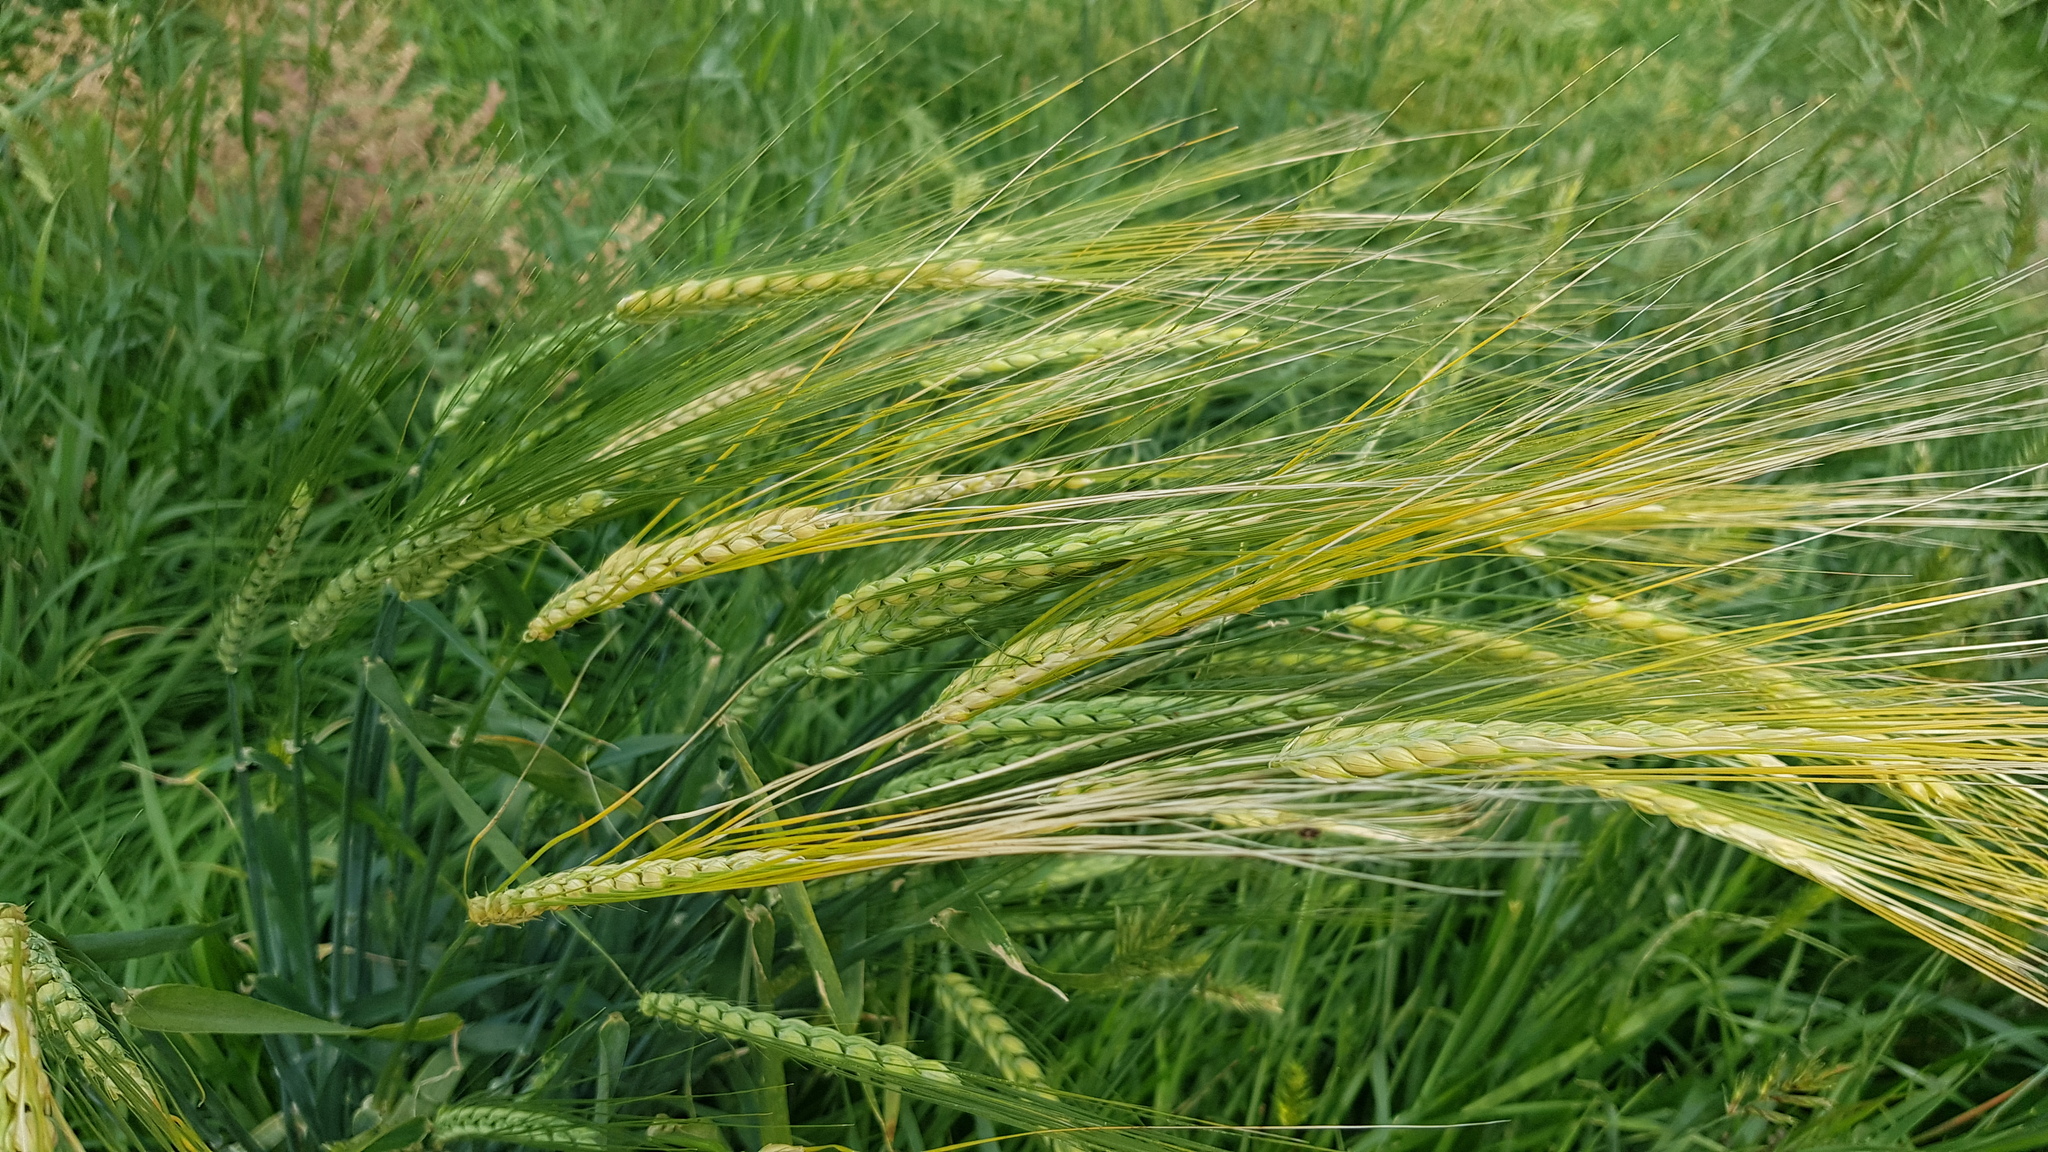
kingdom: Plantae
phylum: Tracheophyta
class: Liliopsida
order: Poales
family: Poaceae
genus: Hordeum
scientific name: Hordeum vulgare
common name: Common barley
